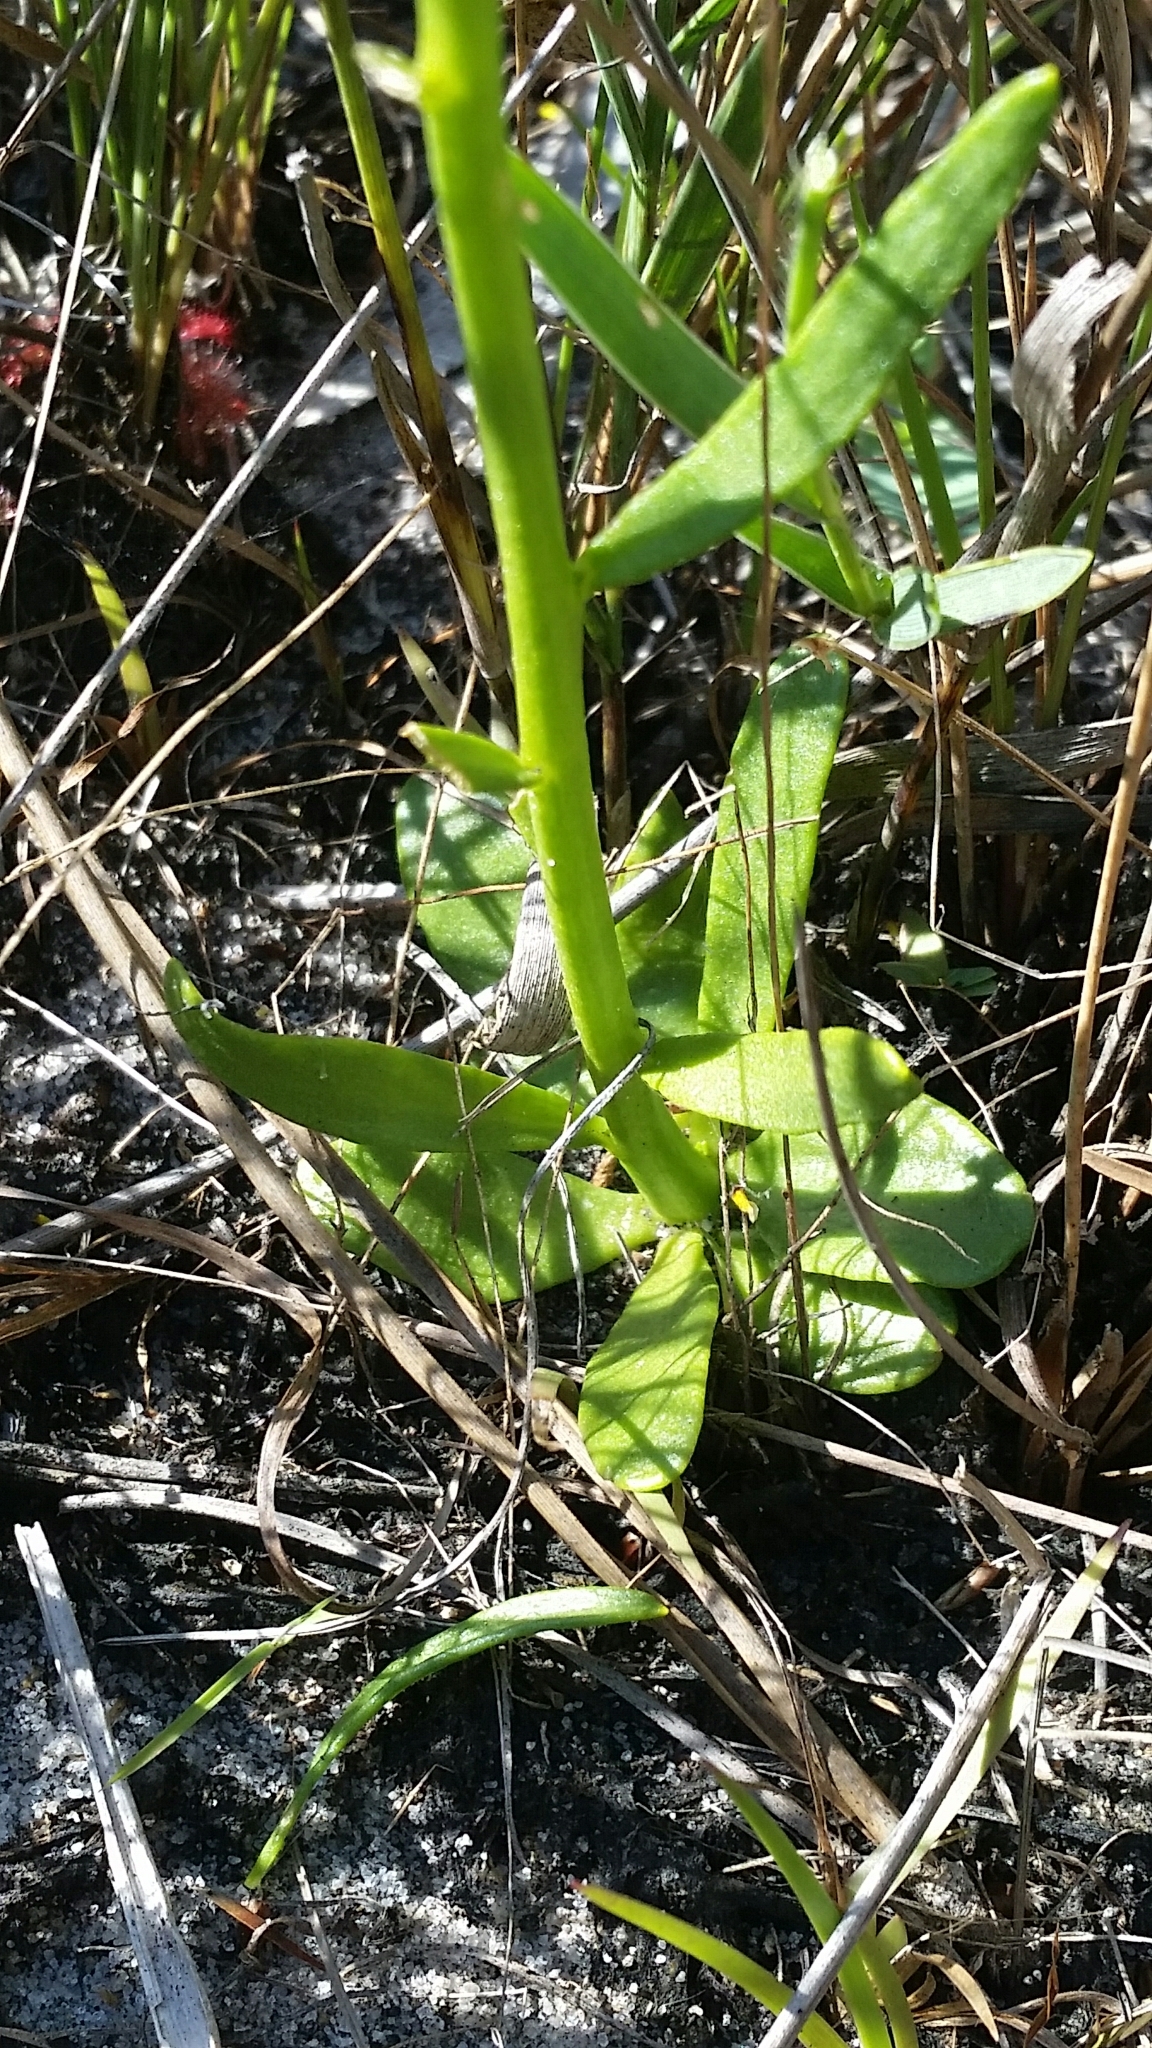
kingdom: Plantae
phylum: Tracheophyta
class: Magnoliopsida
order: Fabales
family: Polygalaceae
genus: Polygala
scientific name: Polygala ramosa
